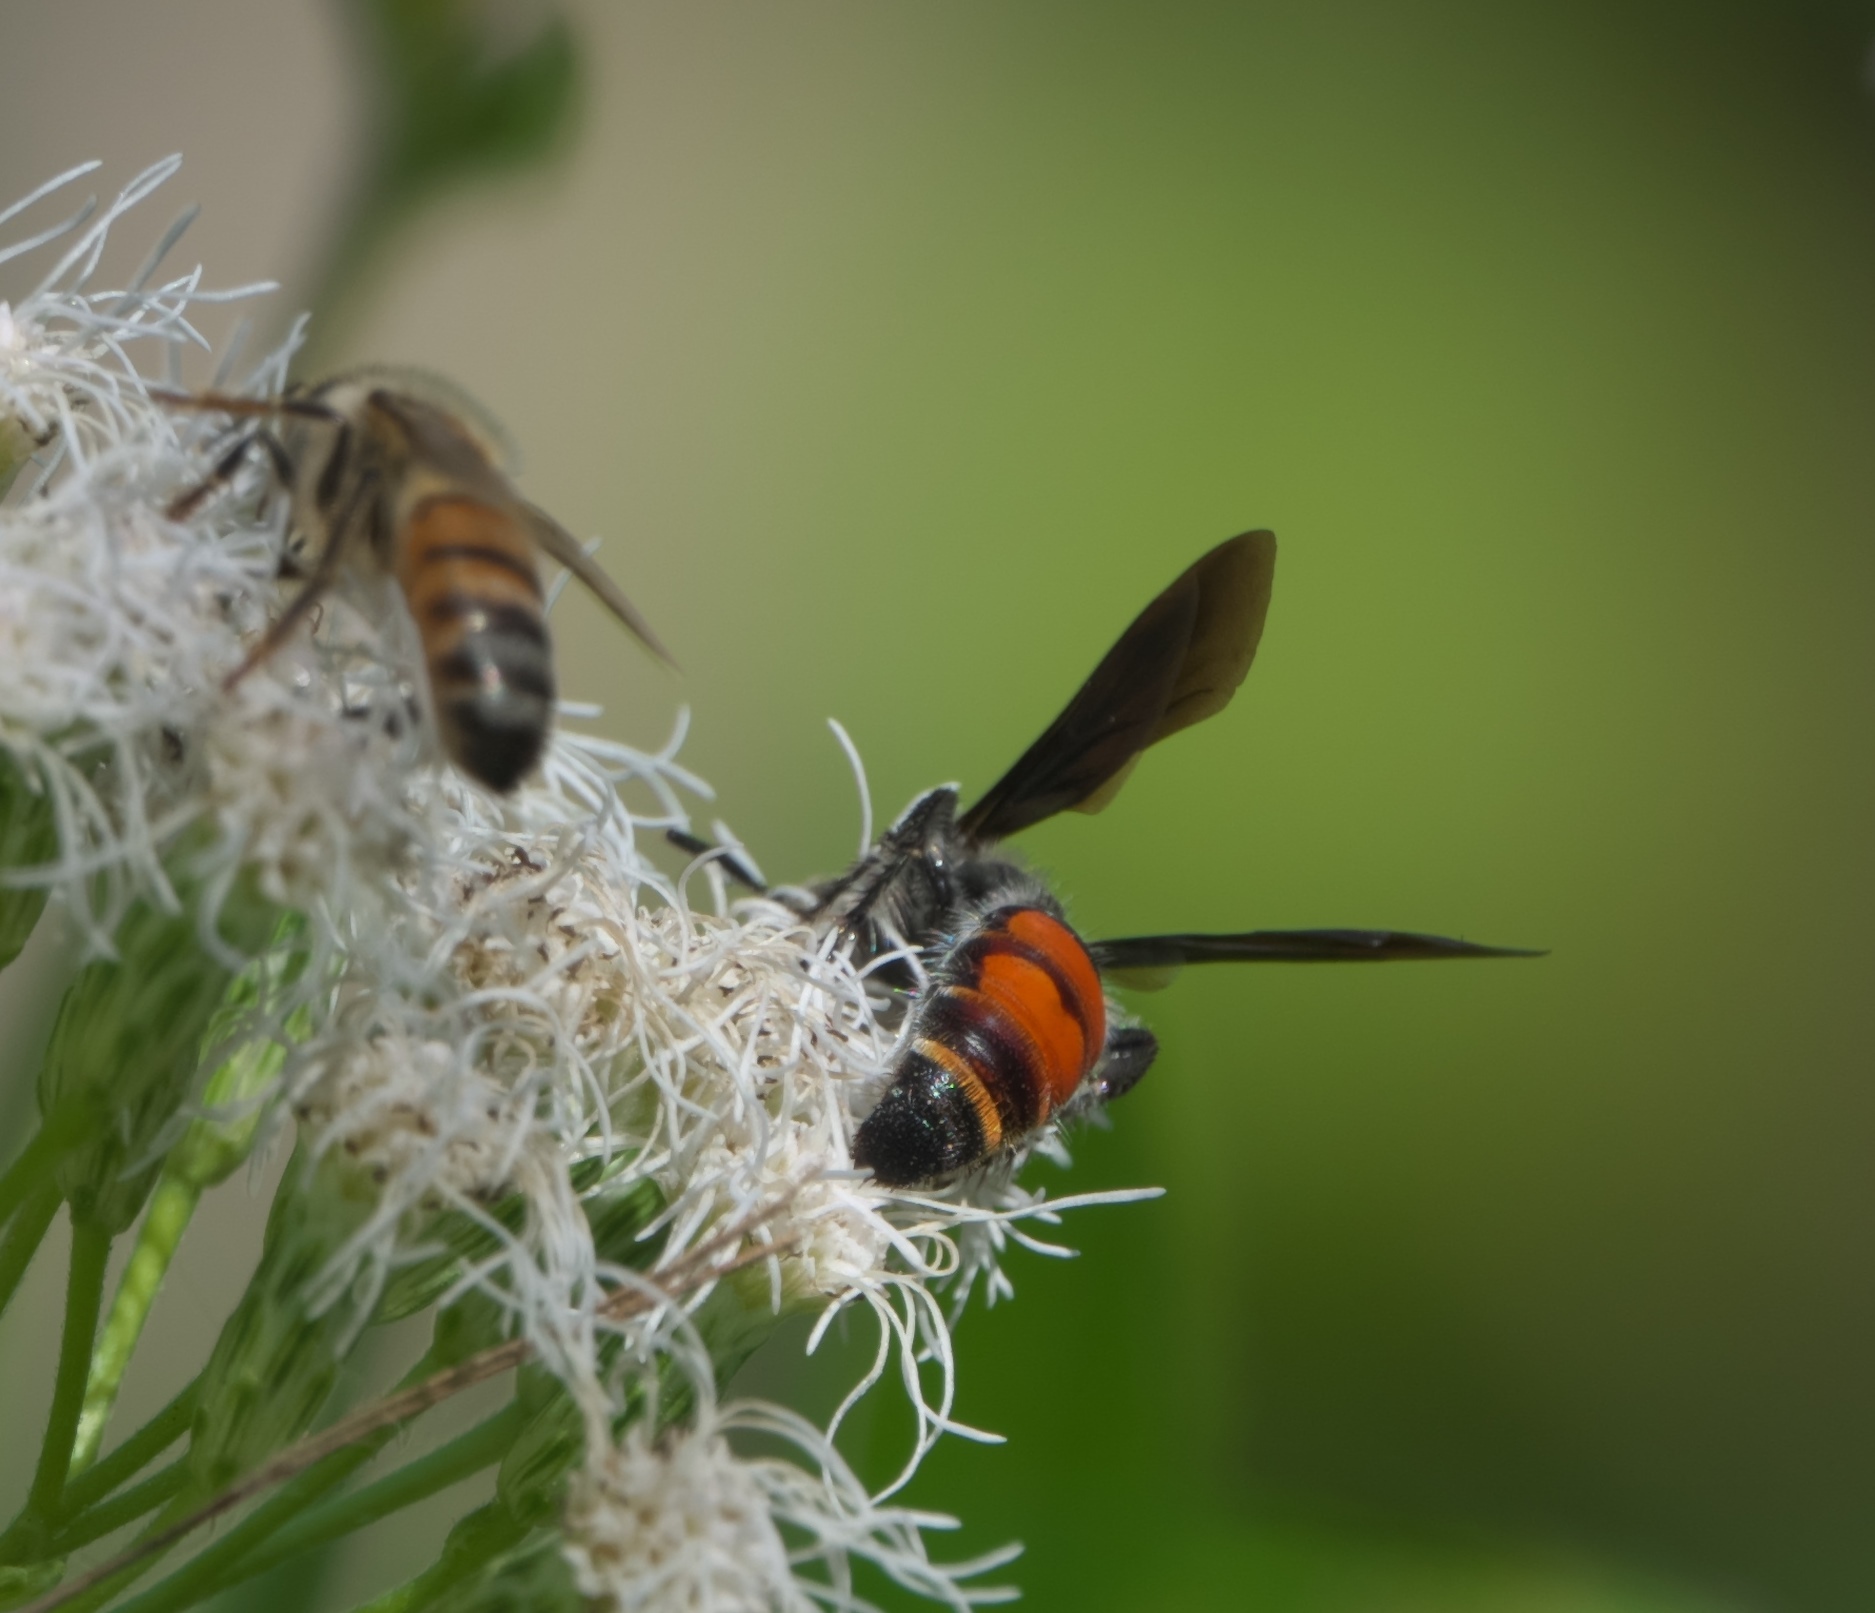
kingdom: Animalia
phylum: Arthropoda
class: Insecta
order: Hymenoptera
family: Scoliidae
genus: Dielis
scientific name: Dielis dorsata
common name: Scoliid wasp
